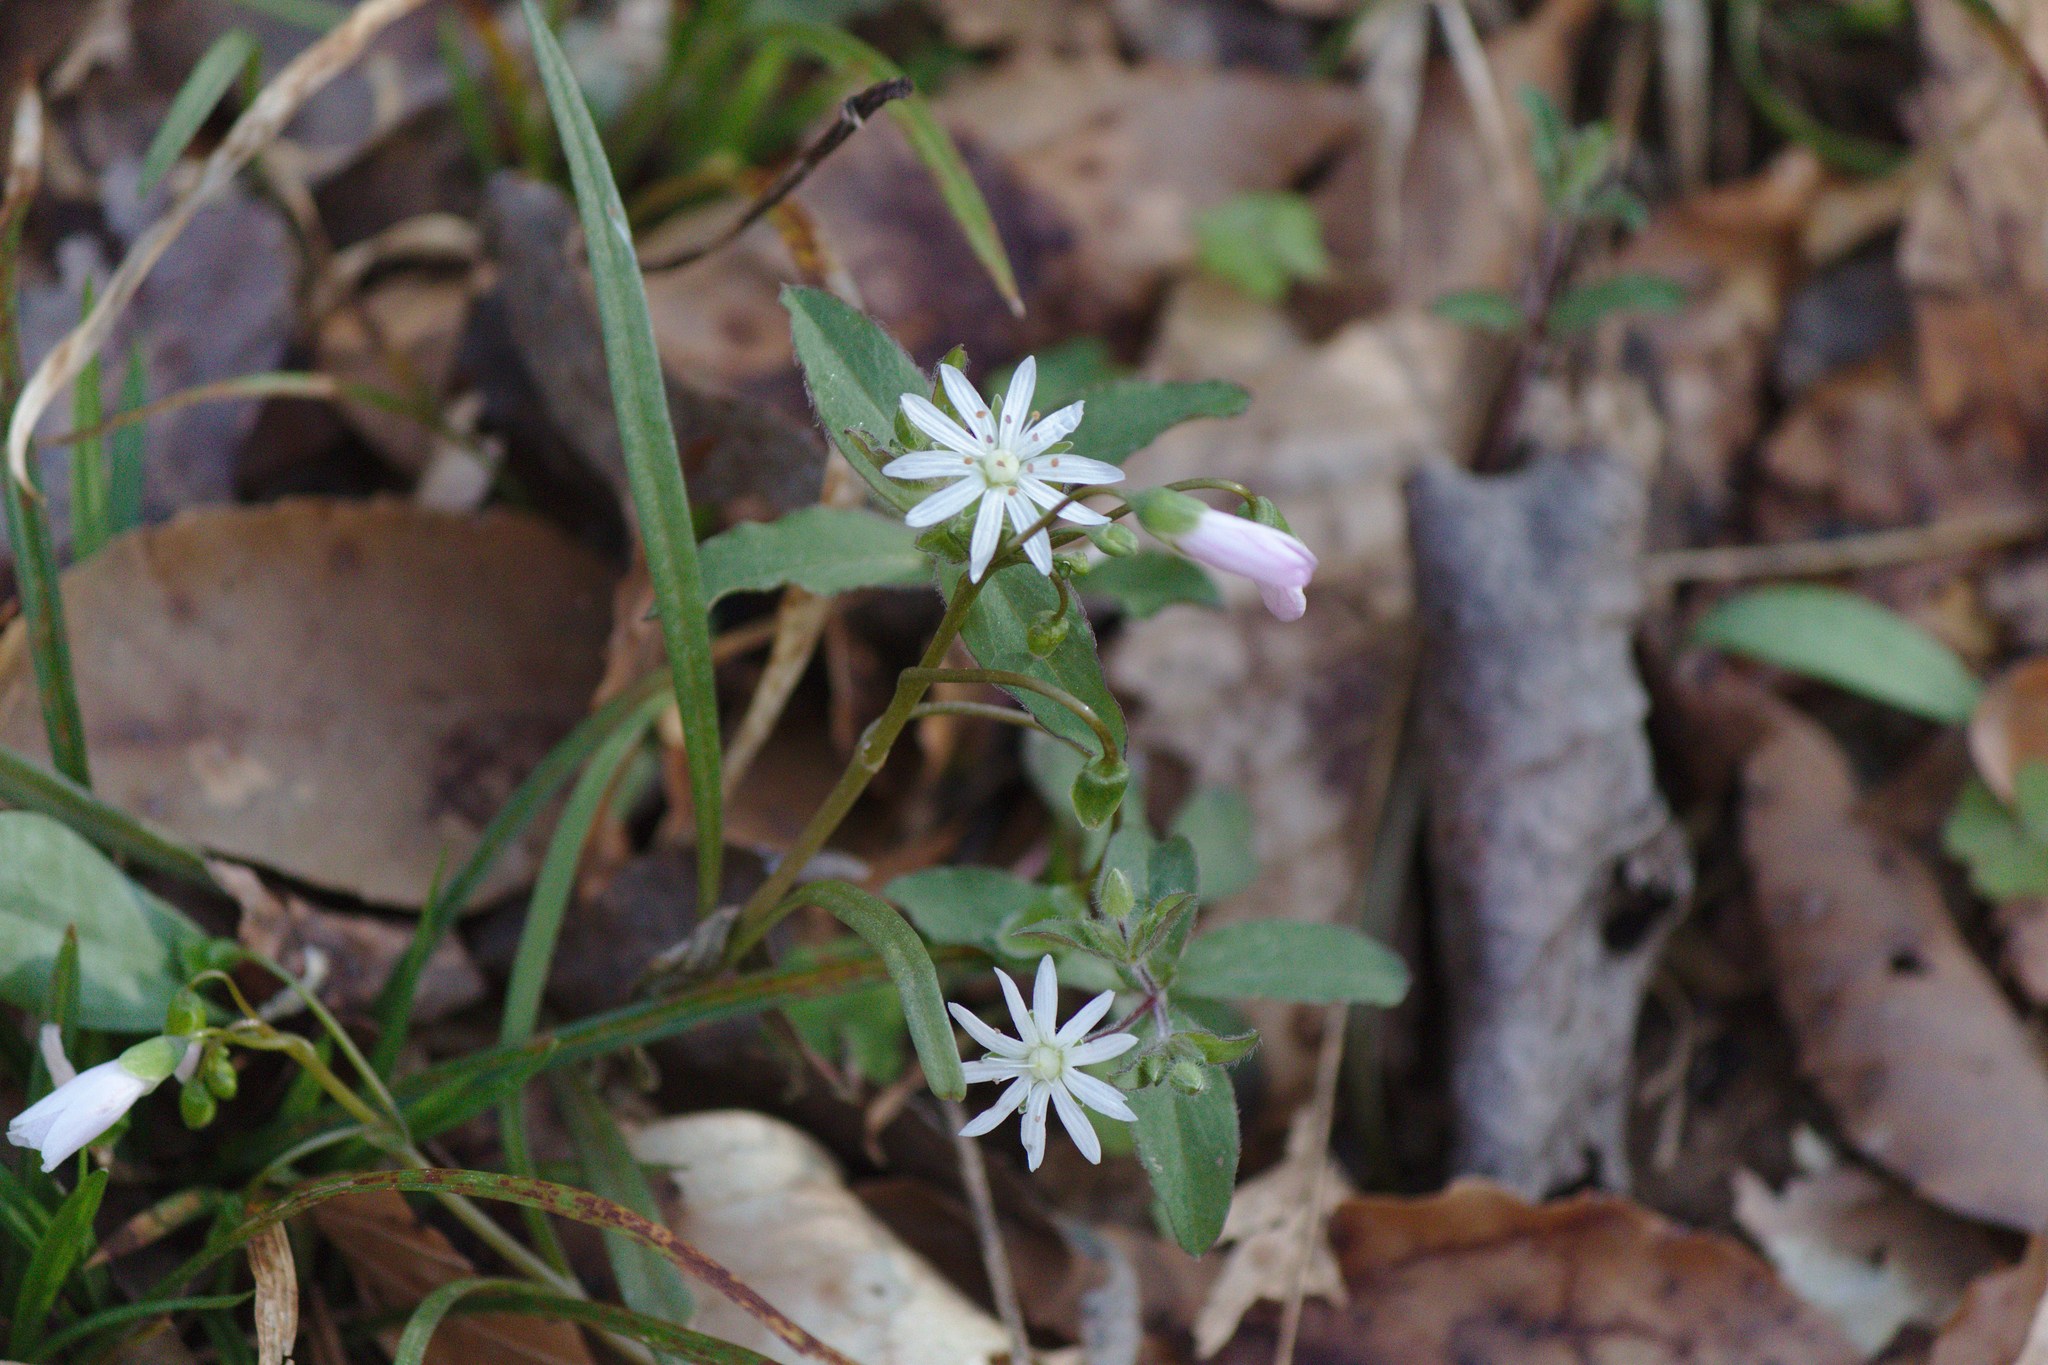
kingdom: Plantae
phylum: Tracheophyta
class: Magnoliopsida
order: Caryophyllales
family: Caryophyllaceae
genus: Stellaria
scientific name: Stellaria pubera
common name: Star chickweed
